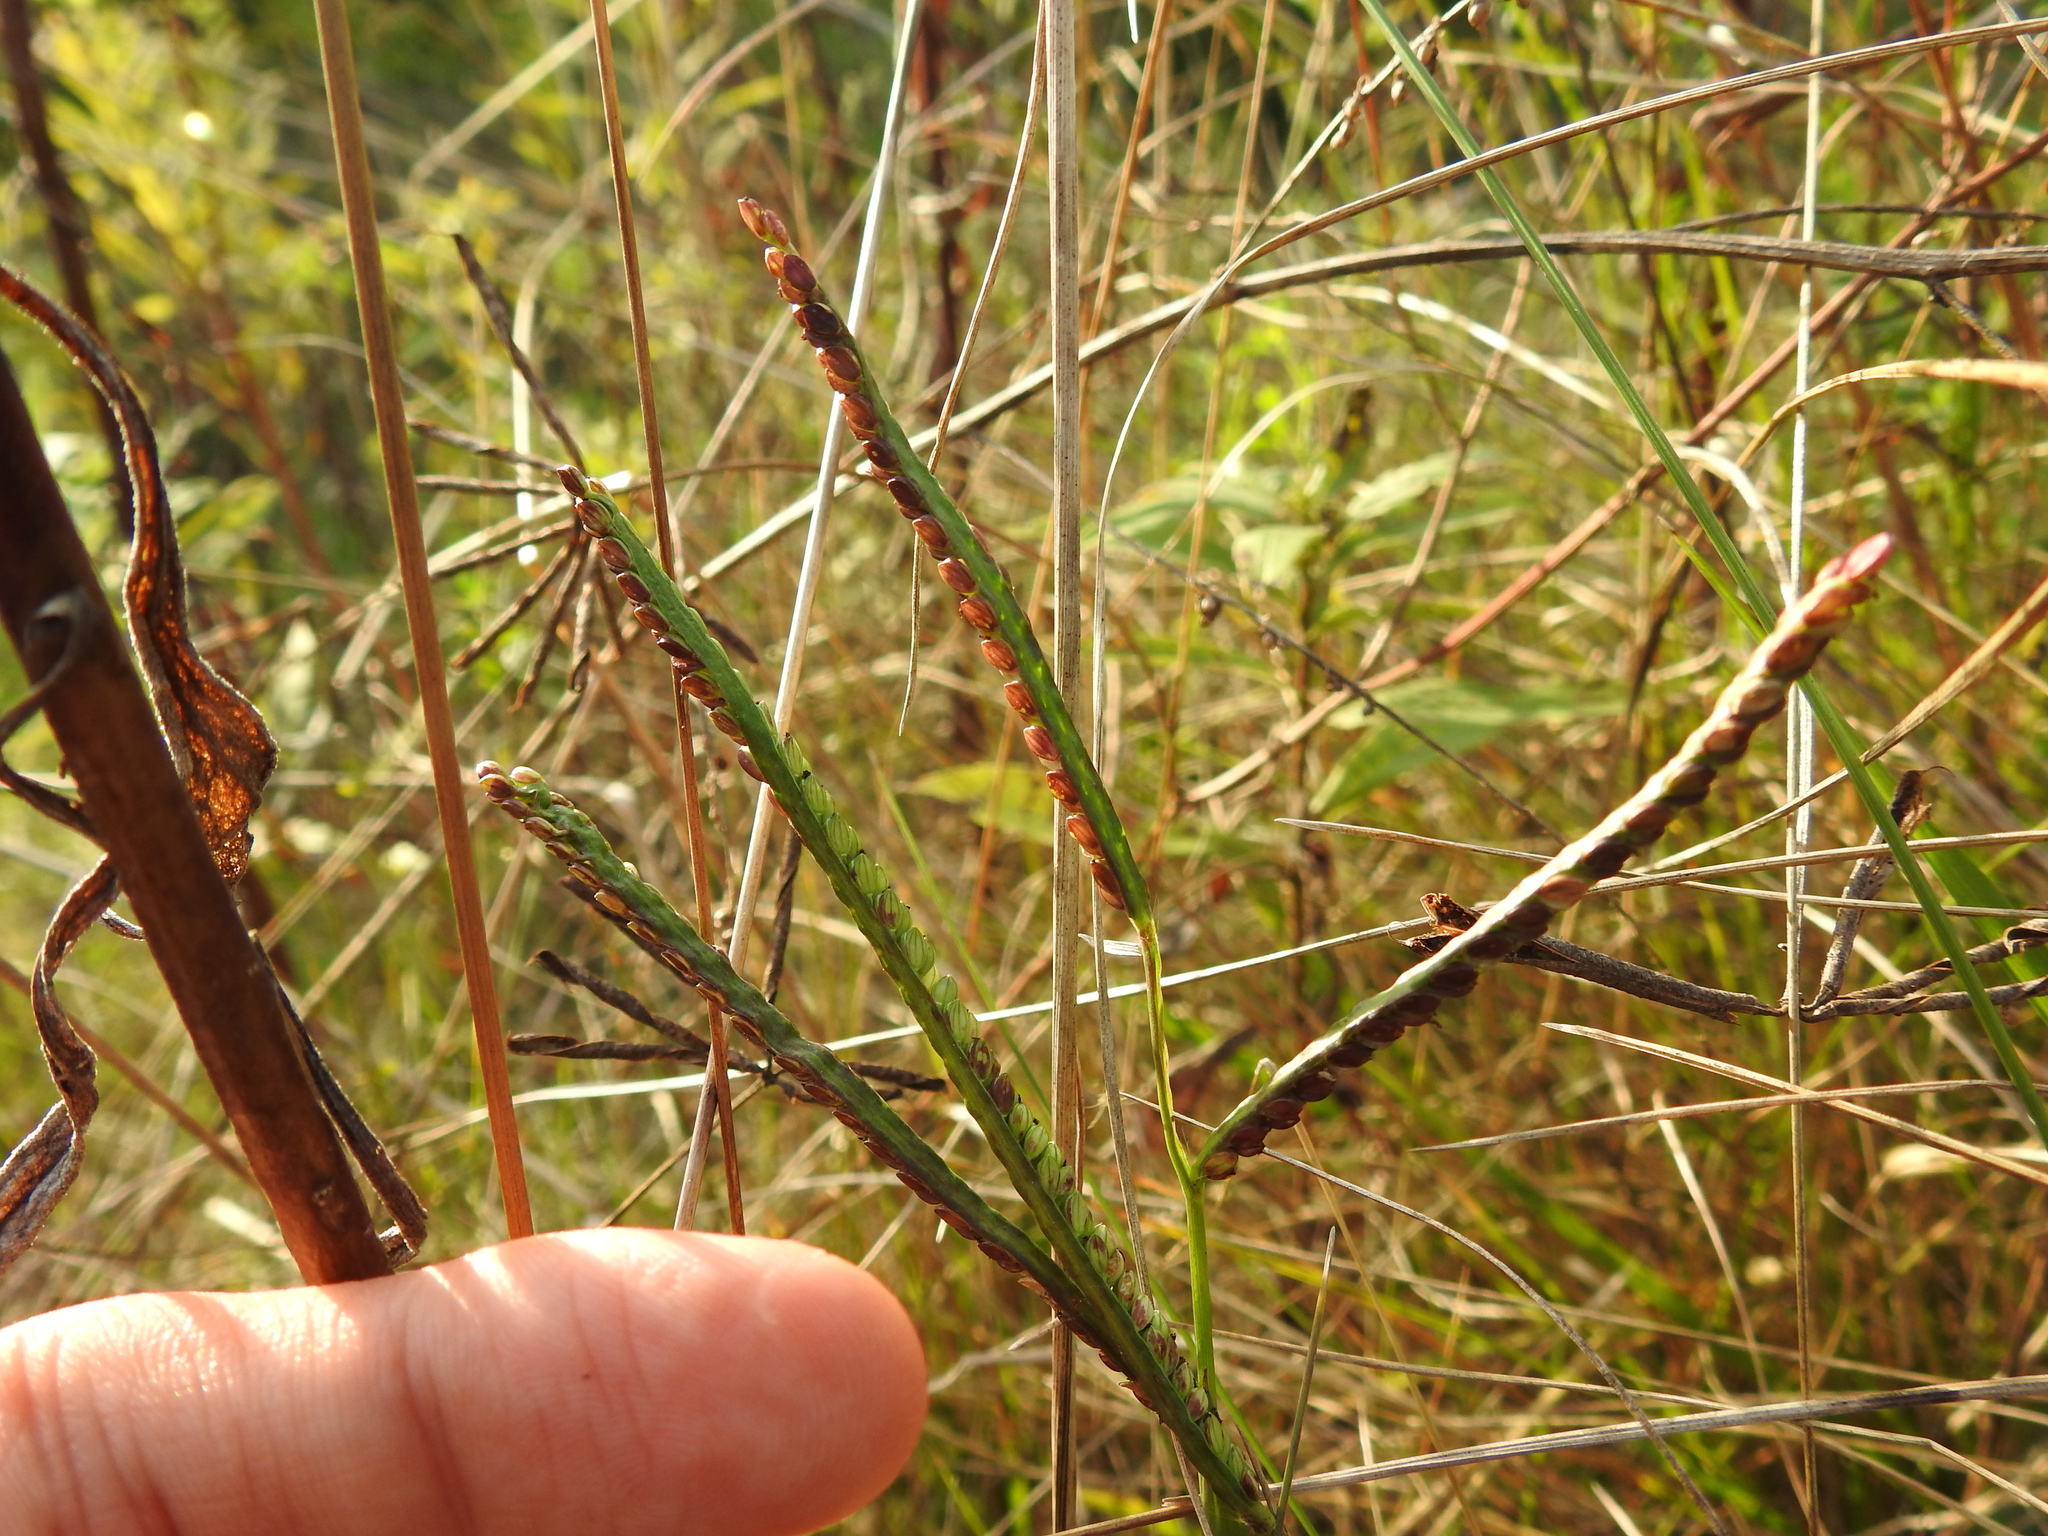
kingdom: Plantae
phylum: Tracheophyta
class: Liliopsida
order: Poales
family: Poaceae
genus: Paspalum
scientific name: Paspalum pubiflorum
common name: Hairy-seed paspalum
